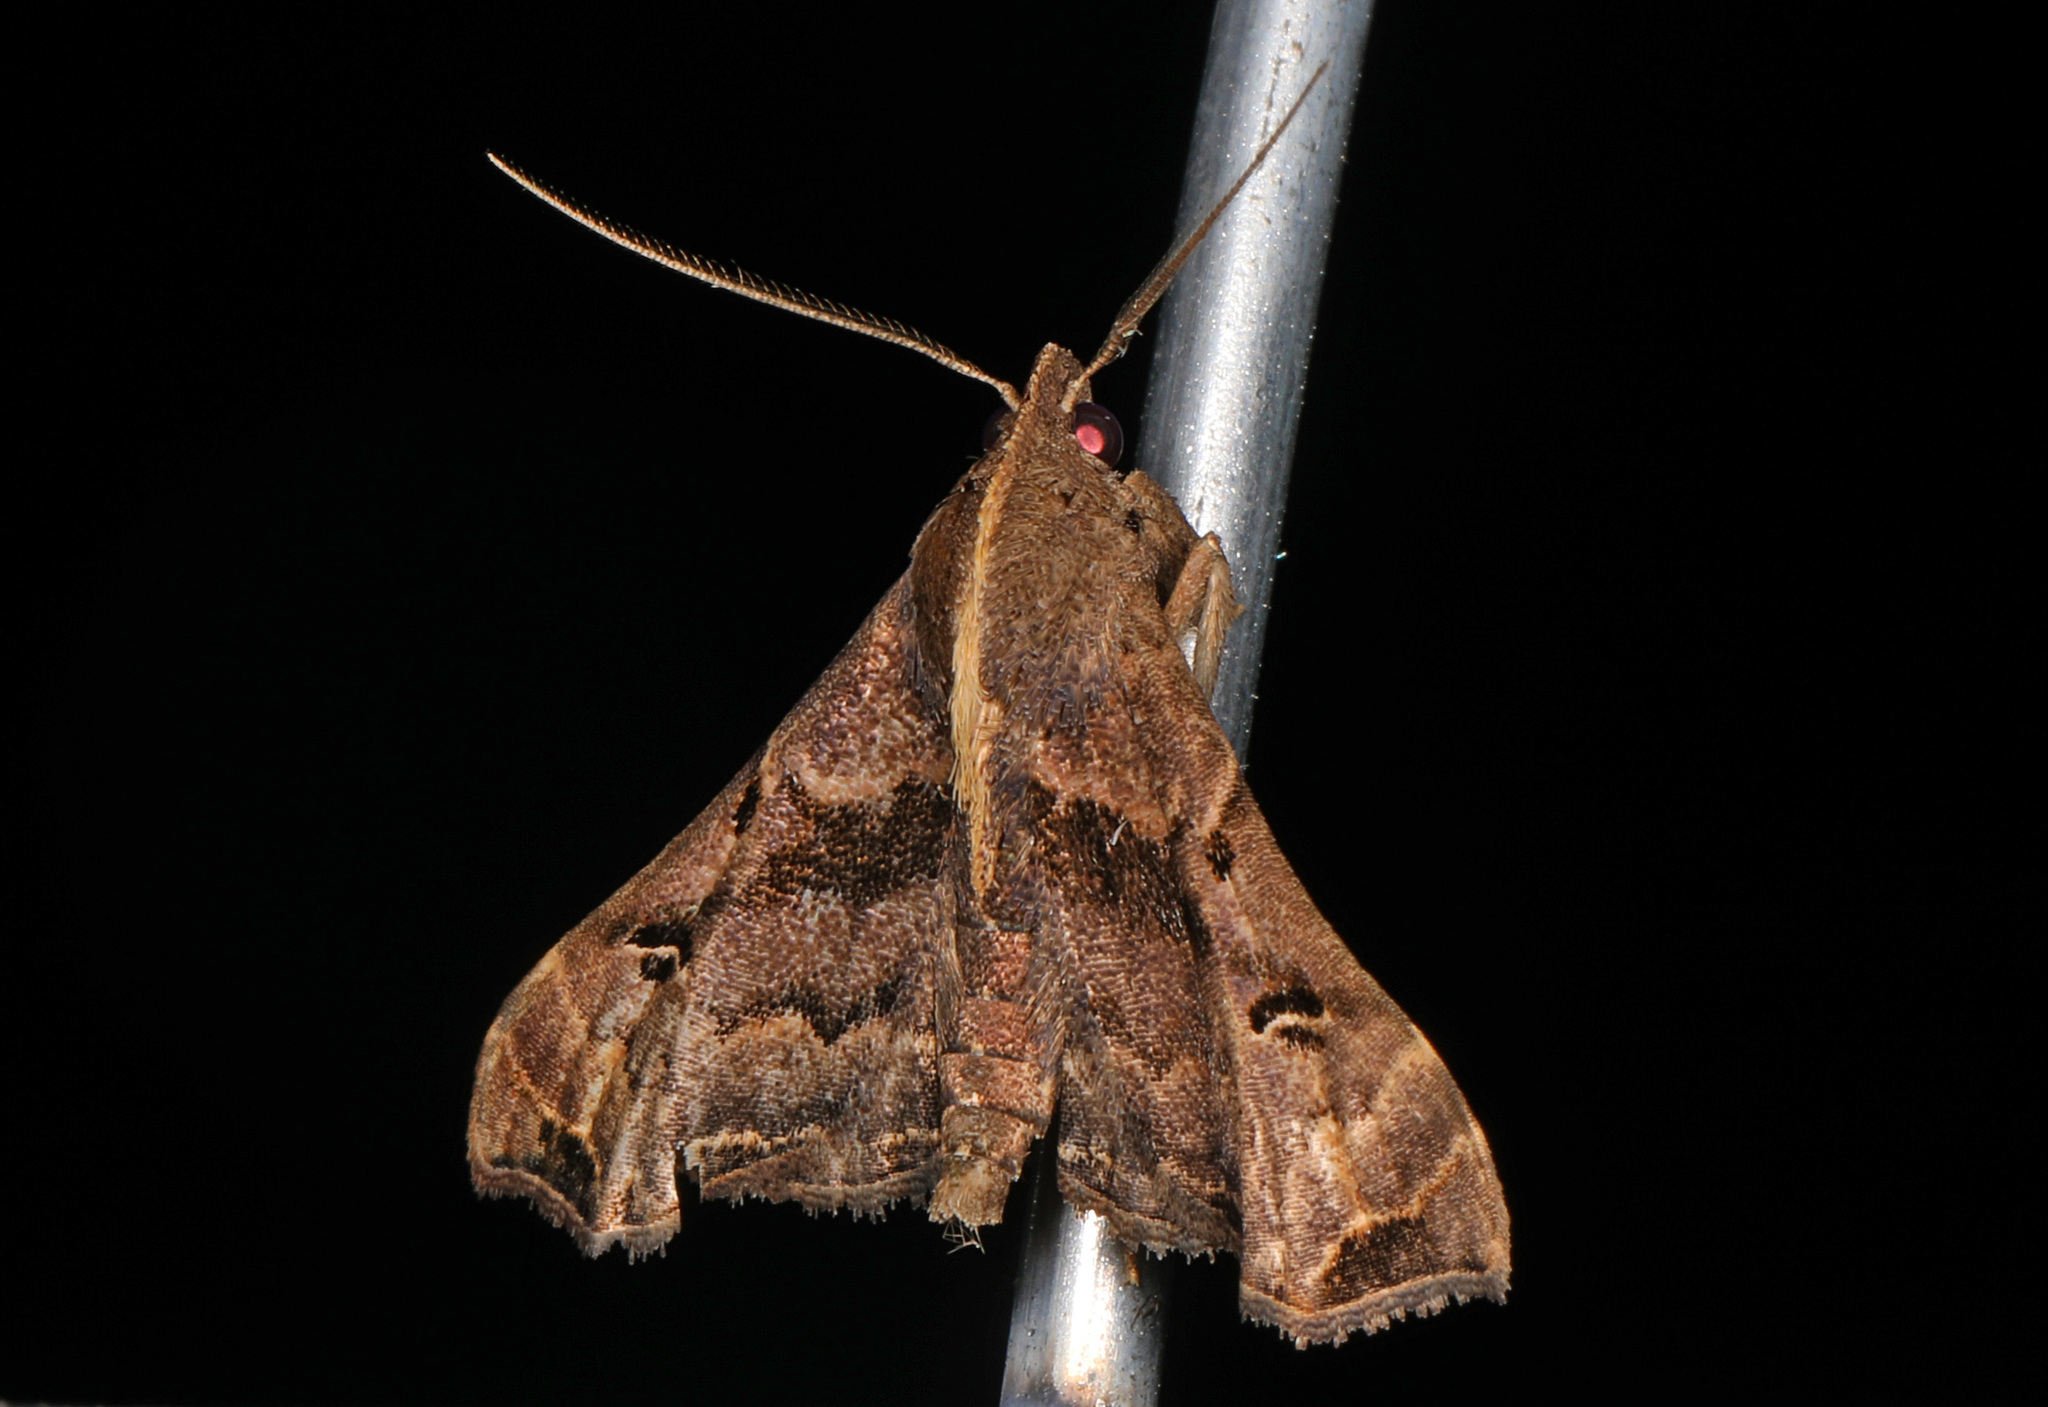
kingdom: Animalia
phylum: Arthropoda
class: Insecta
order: Lepidoptera
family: Erebidae
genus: Palthis
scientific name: Palthis asopialis
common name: Faint-spotted palthis moth
